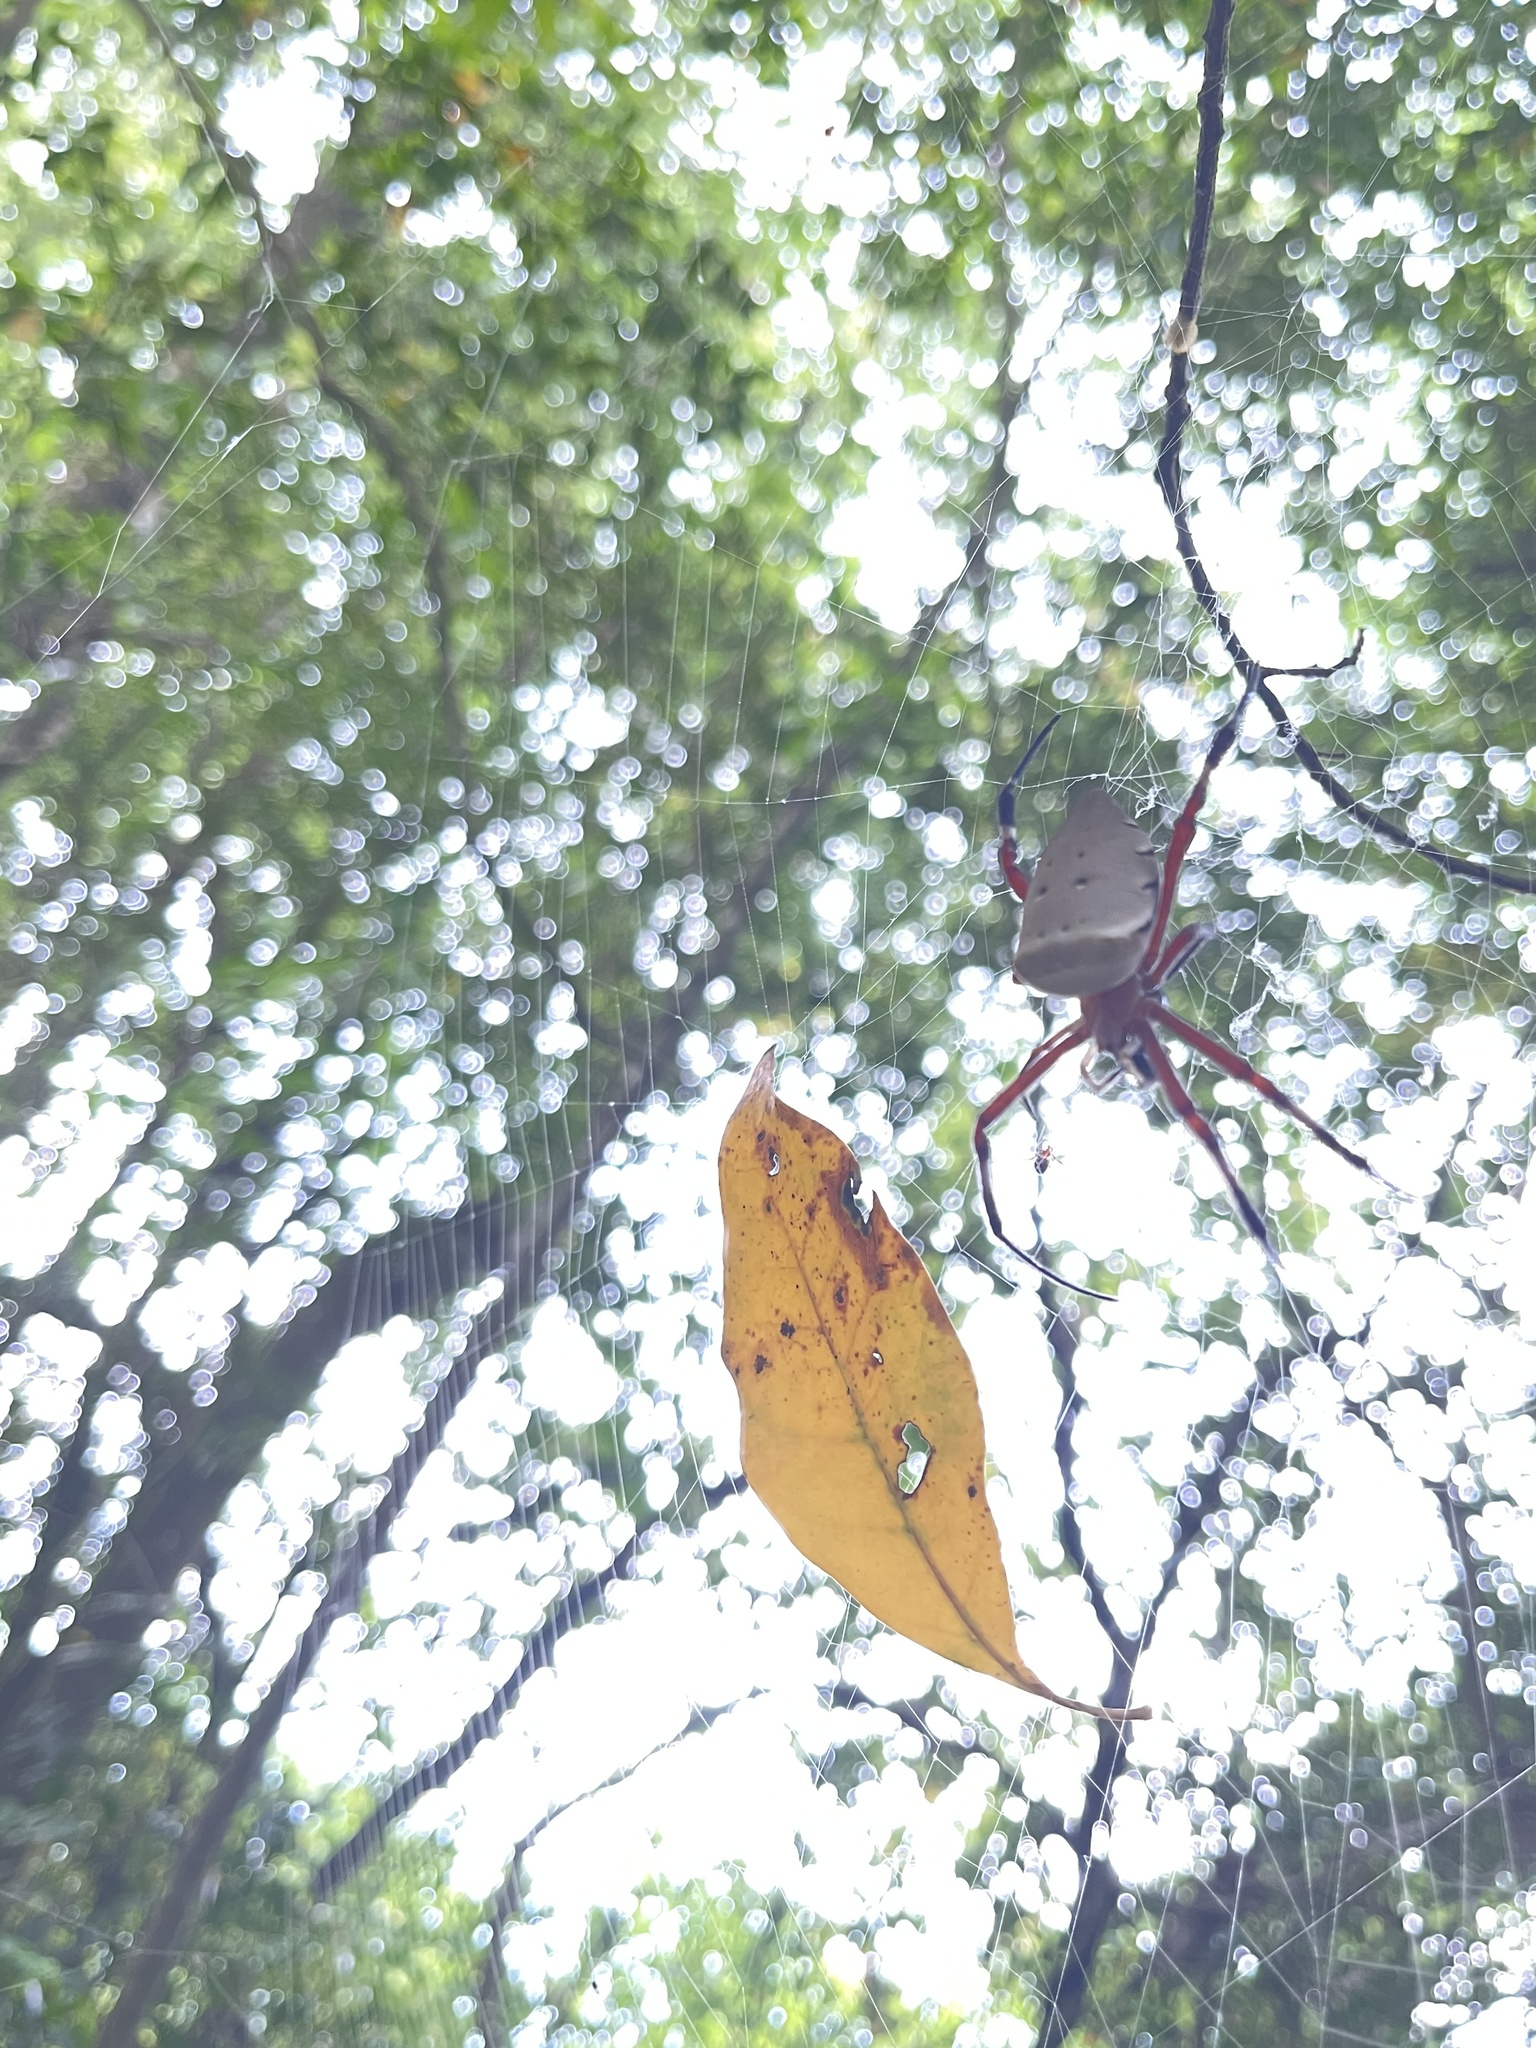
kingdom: Animalia
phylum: Arthropoda
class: Arachnida
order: Araneae
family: Araneidae
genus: Argiope
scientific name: Argiope ocula
